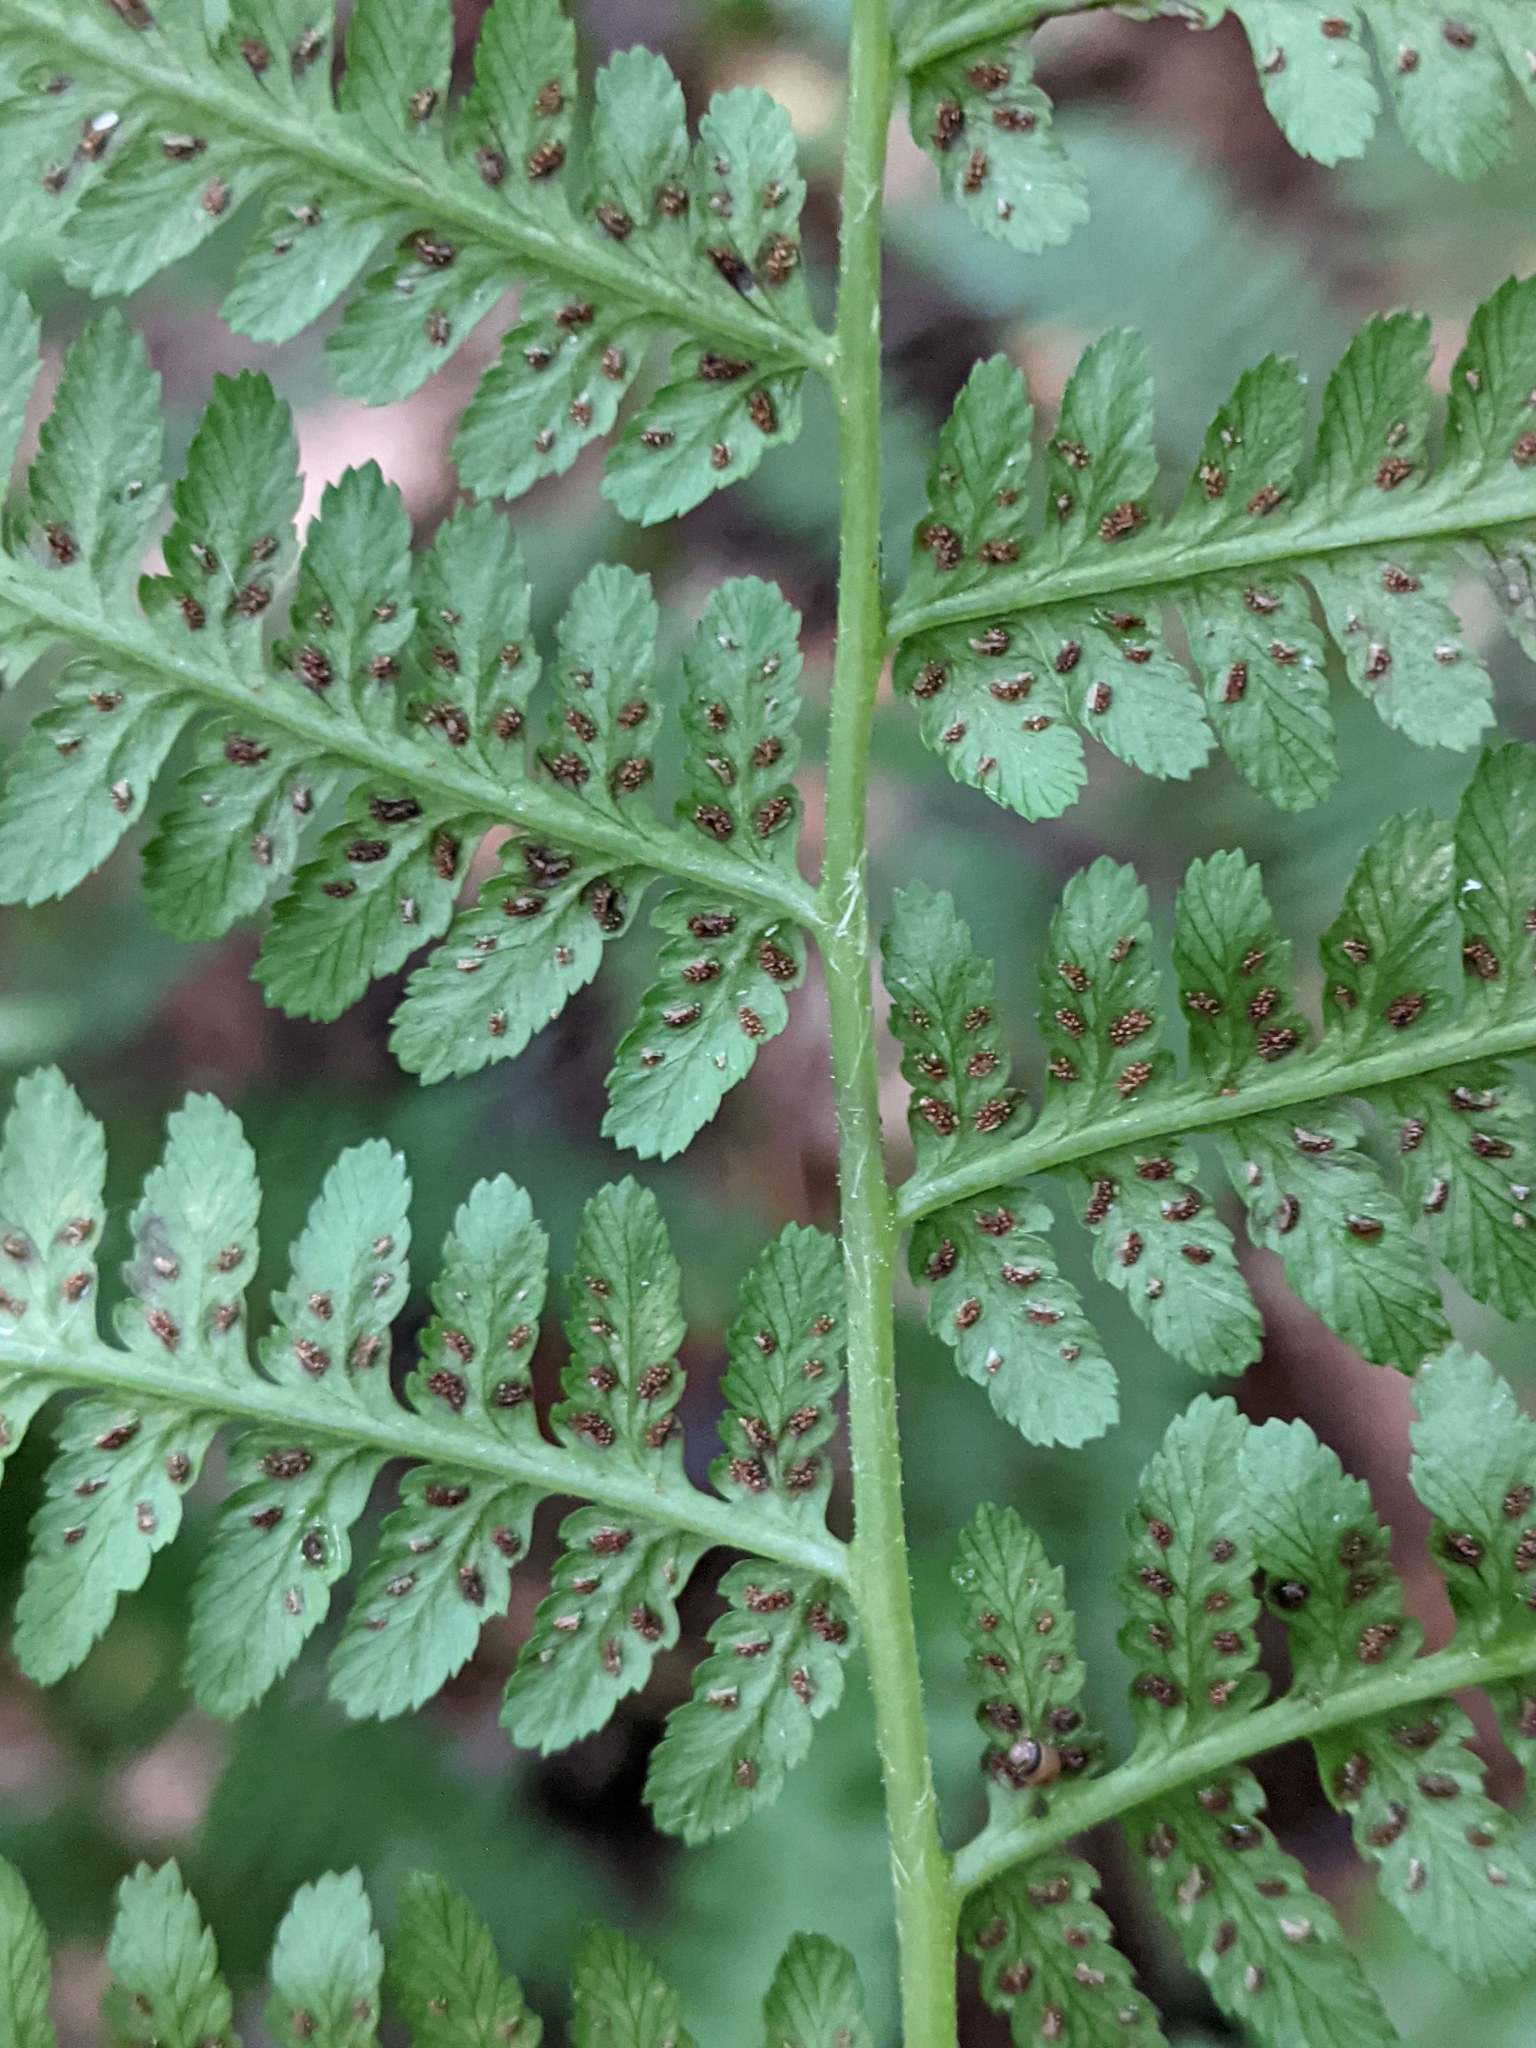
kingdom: Plantae
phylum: Tracheophyta
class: Polypodiopsida
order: Polypodiales
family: Athyriaceae
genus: Athyrium
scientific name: Athyrium angustum
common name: Northern lady fern
